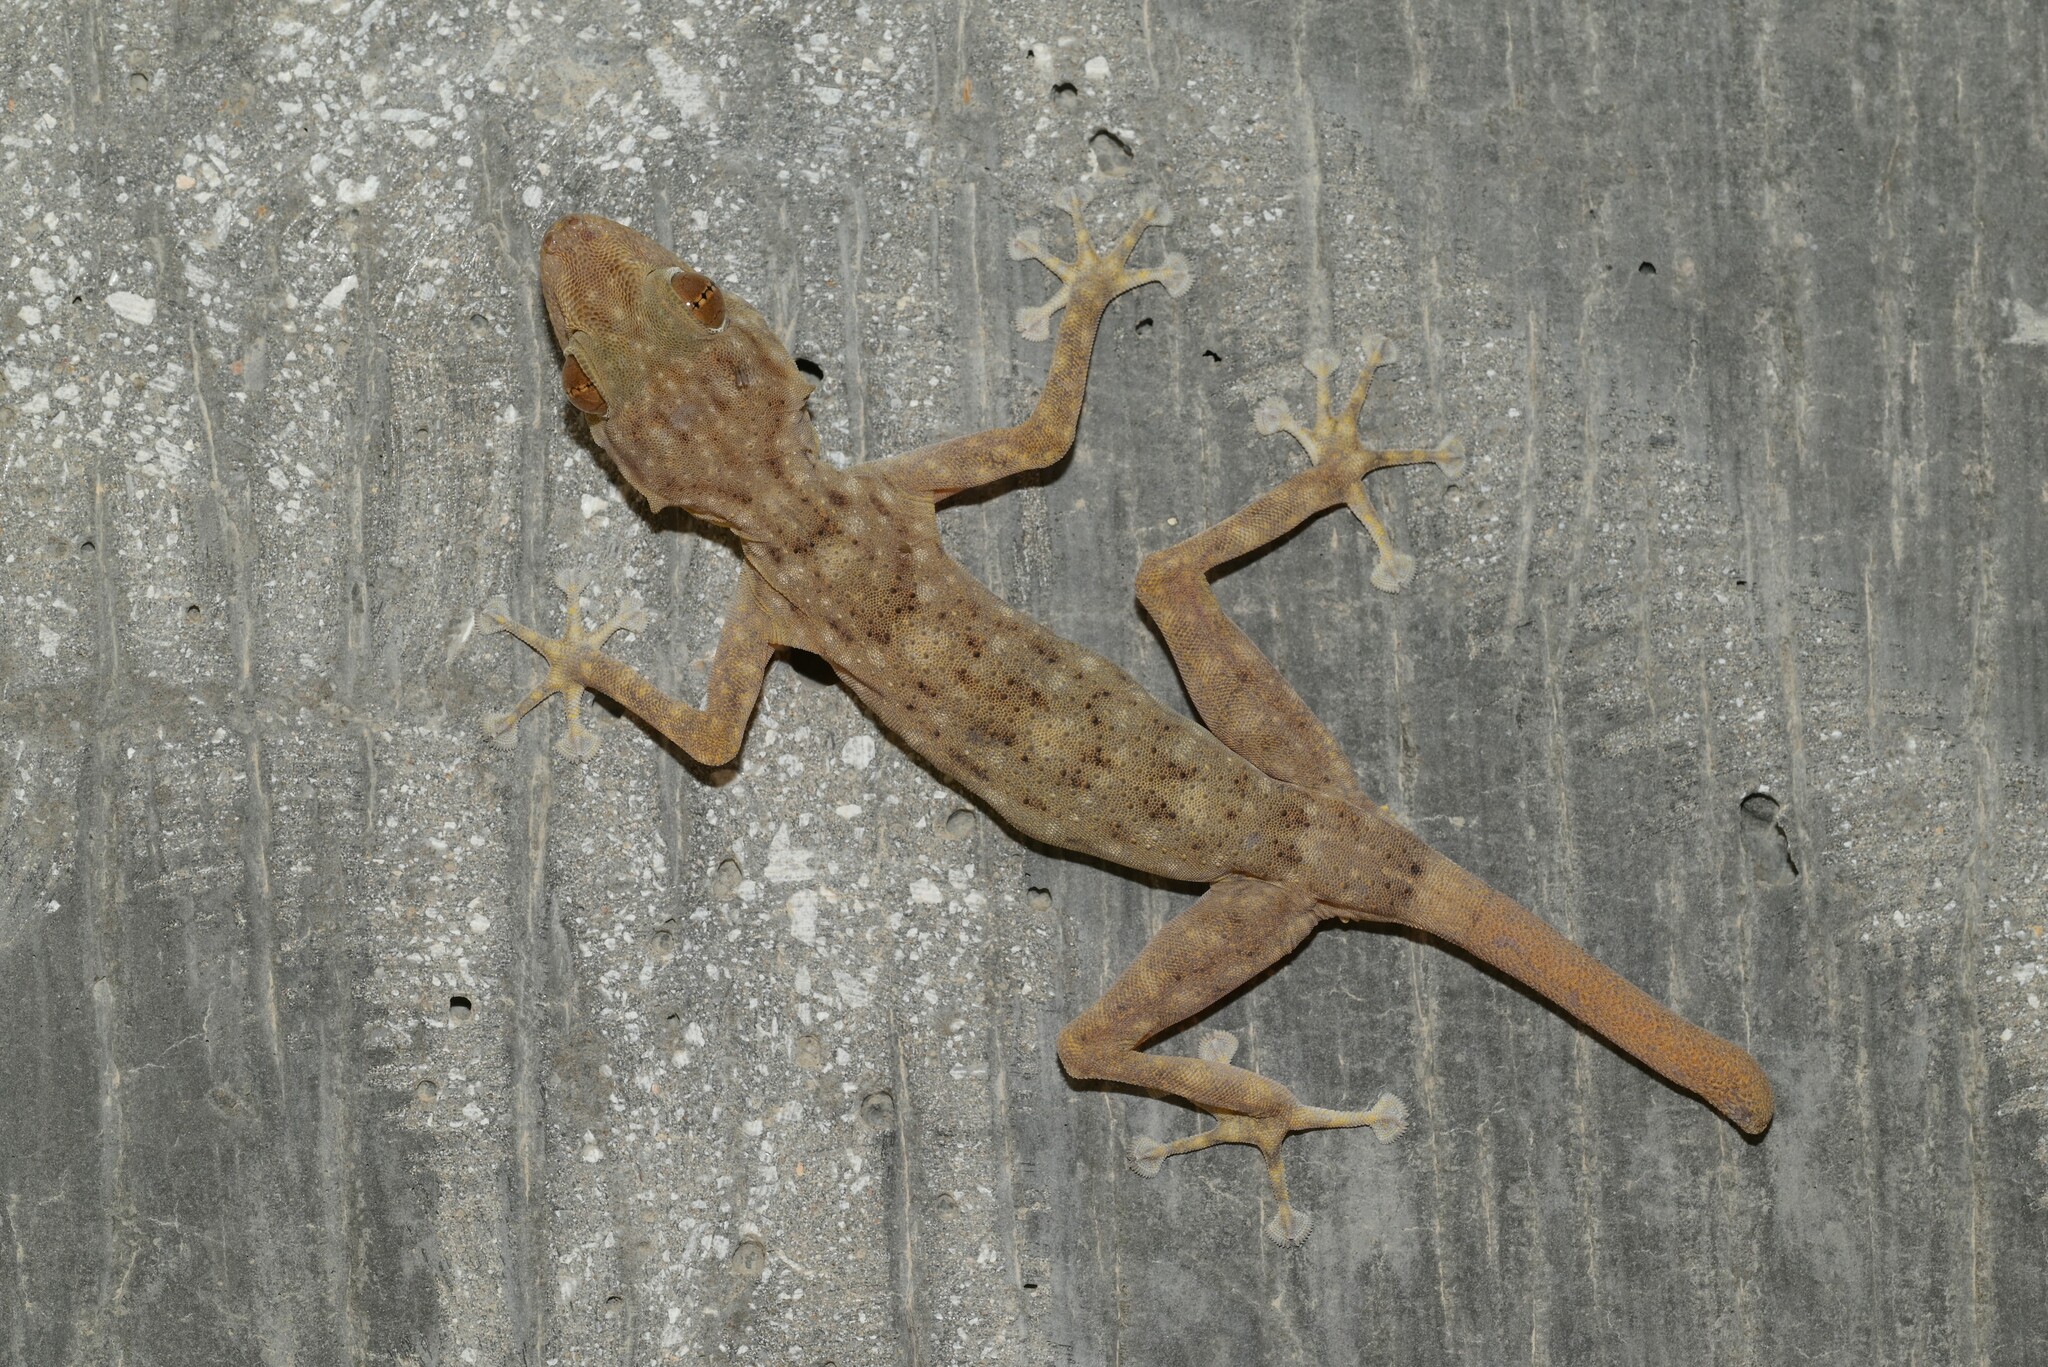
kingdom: Animalia
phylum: Chordata
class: Squamata
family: Phyllodactylidae
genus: Ptyodactylus
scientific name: Ptyodactylus orlovi
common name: Orlov's fan-footed gecko
